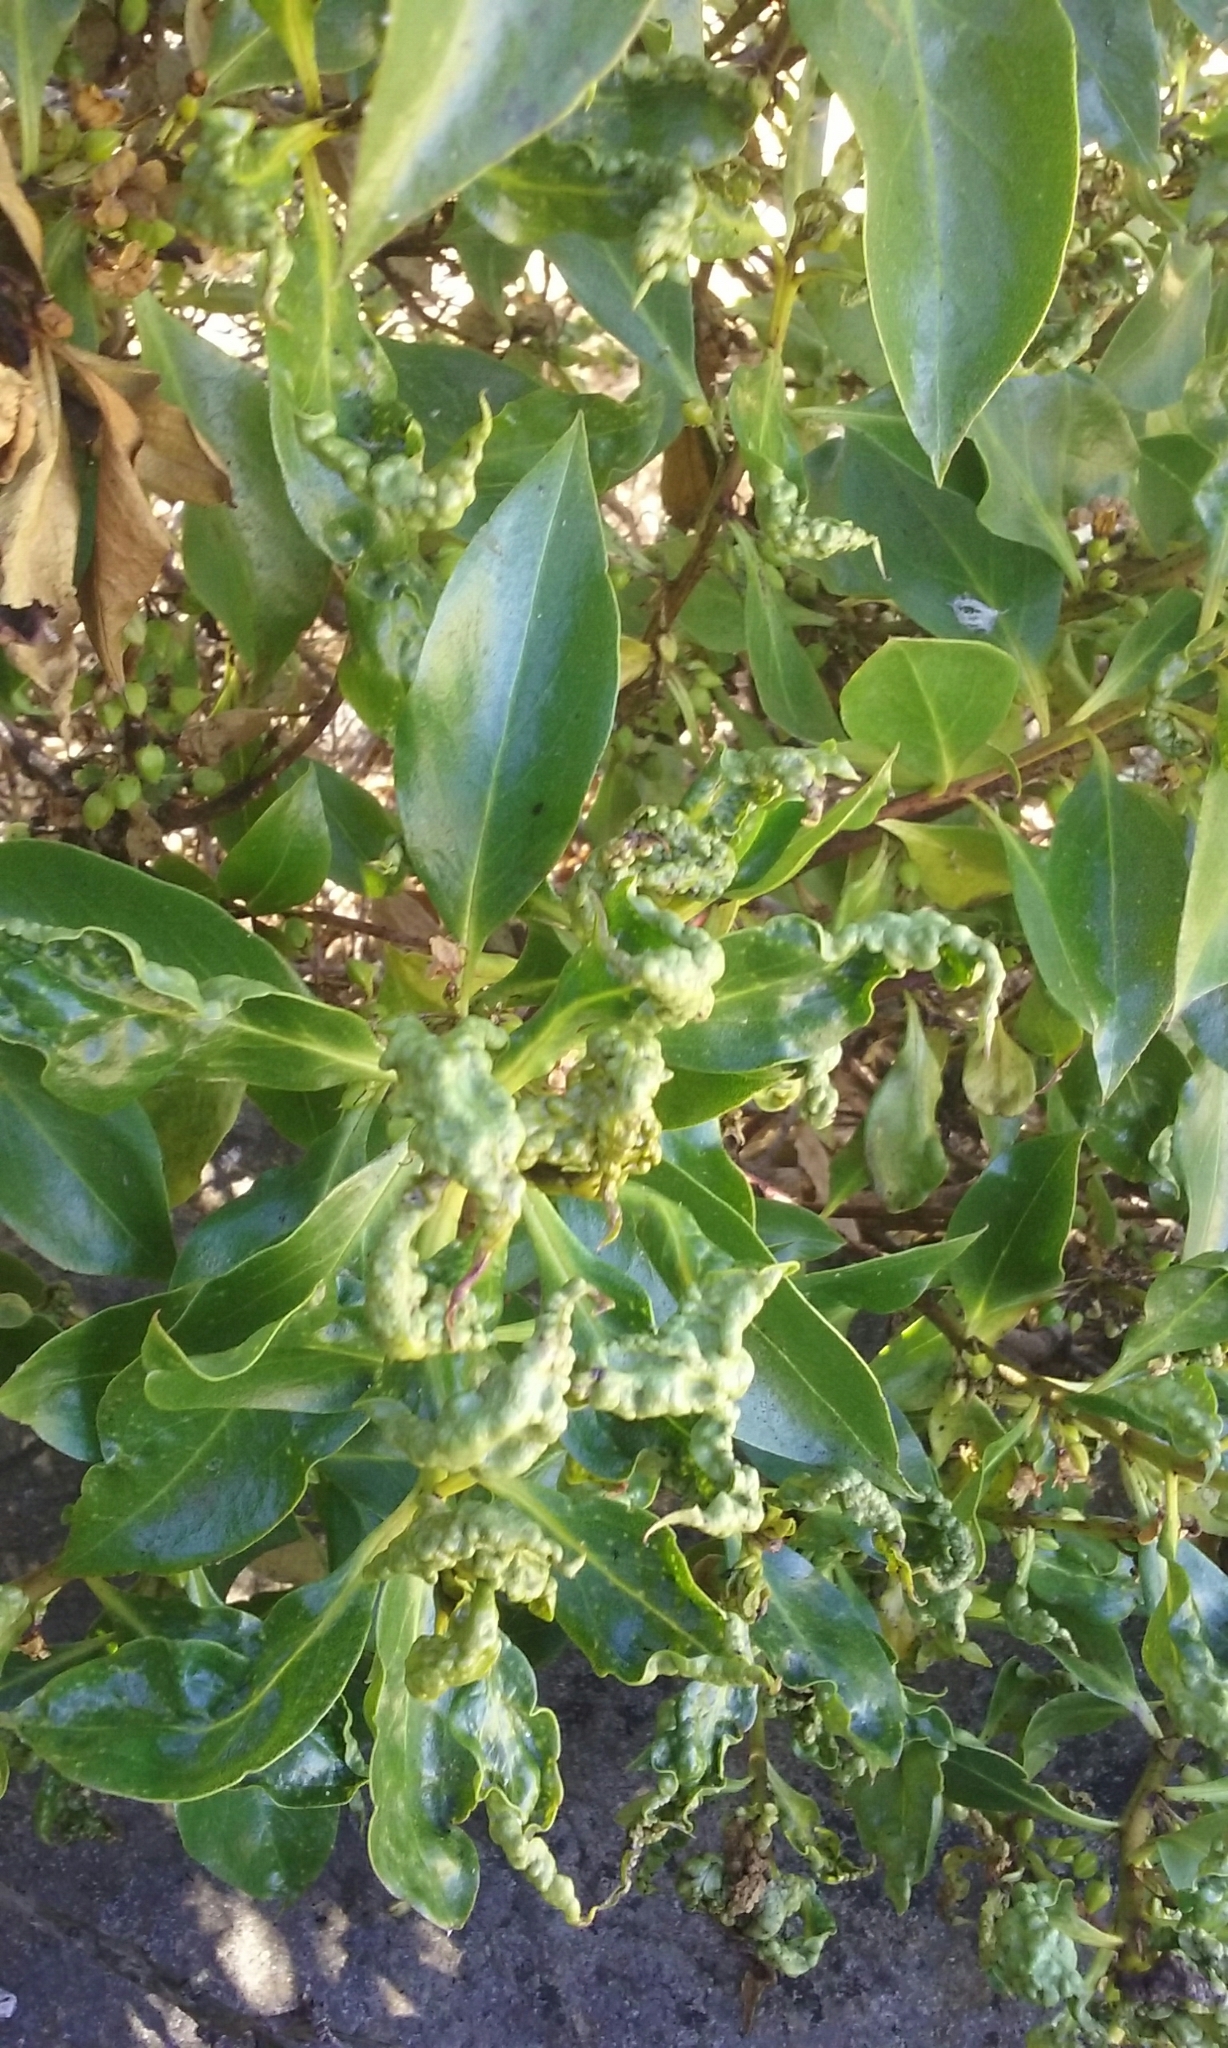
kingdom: Animalia
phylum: Arthropoda
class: Insecta
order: Thysanoptera
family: Phlaeothripidae
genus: Klambothrips
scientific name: Klambothrips myopori
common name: Myoporum thrips
